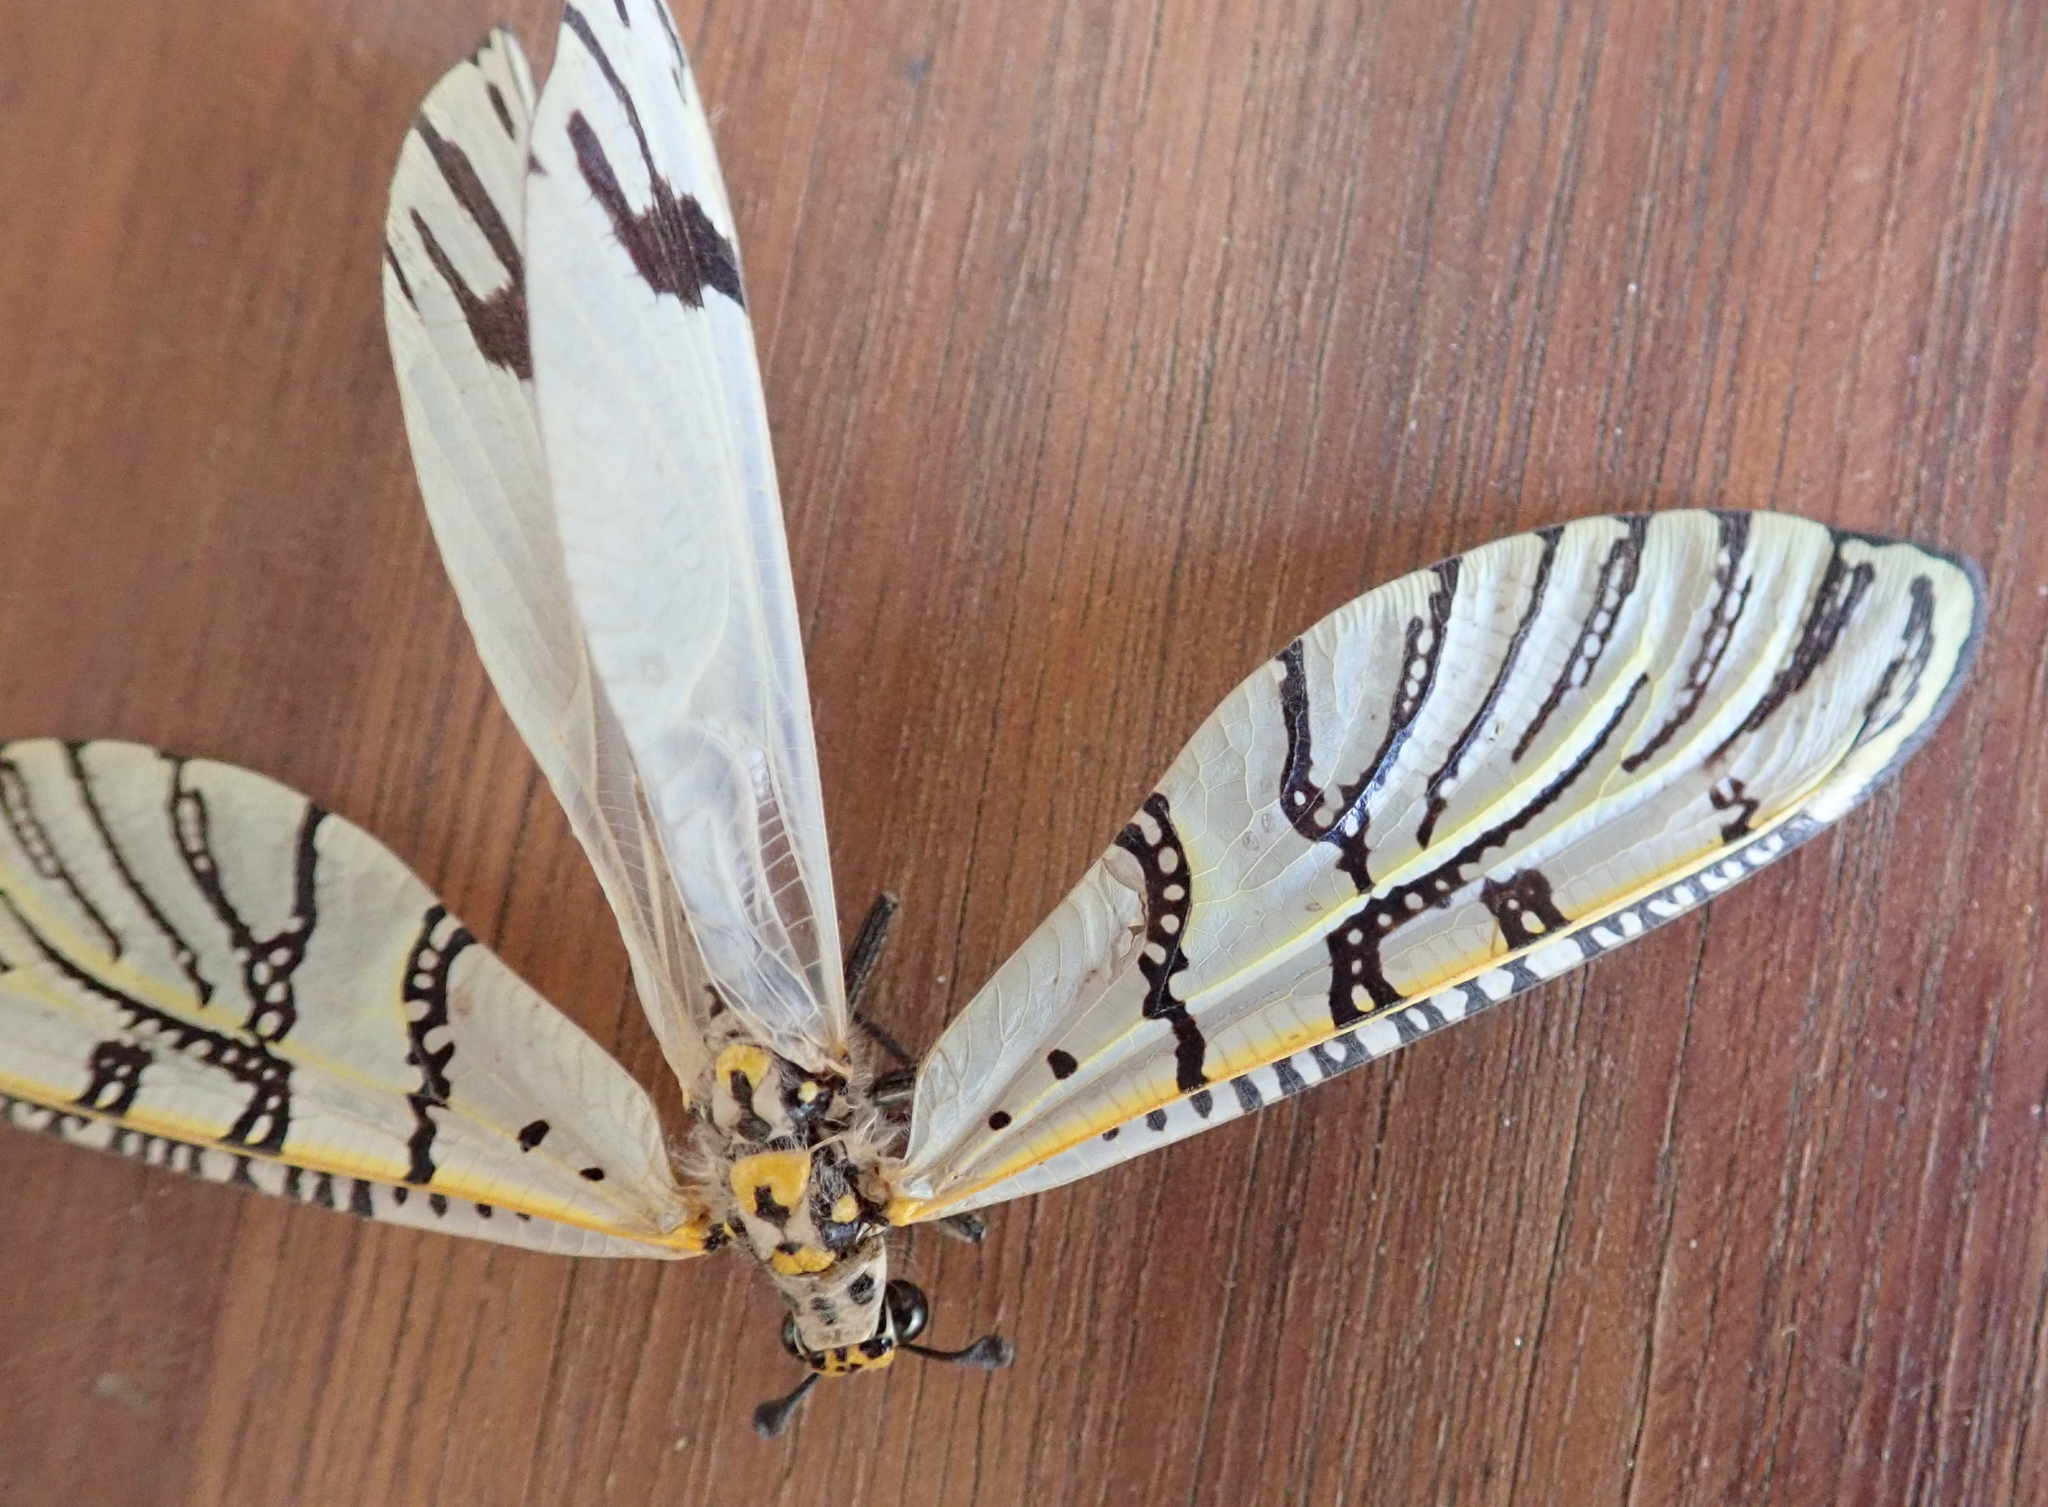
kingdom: Animalia
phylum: Arthropoda
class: Insecta
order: Neuroptera
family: Myrmeleontidae
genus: Tomatares
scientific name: Tomatares citrinus
